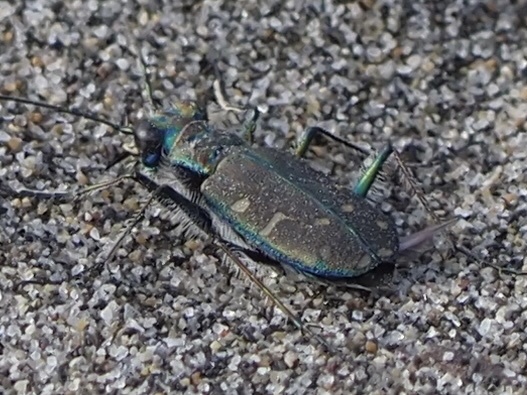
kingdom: Animalia
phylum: Arthropoda
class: Insecta
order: Coleoptera
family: Carabidae
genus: Cicindela
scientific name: Cicindela oregona
